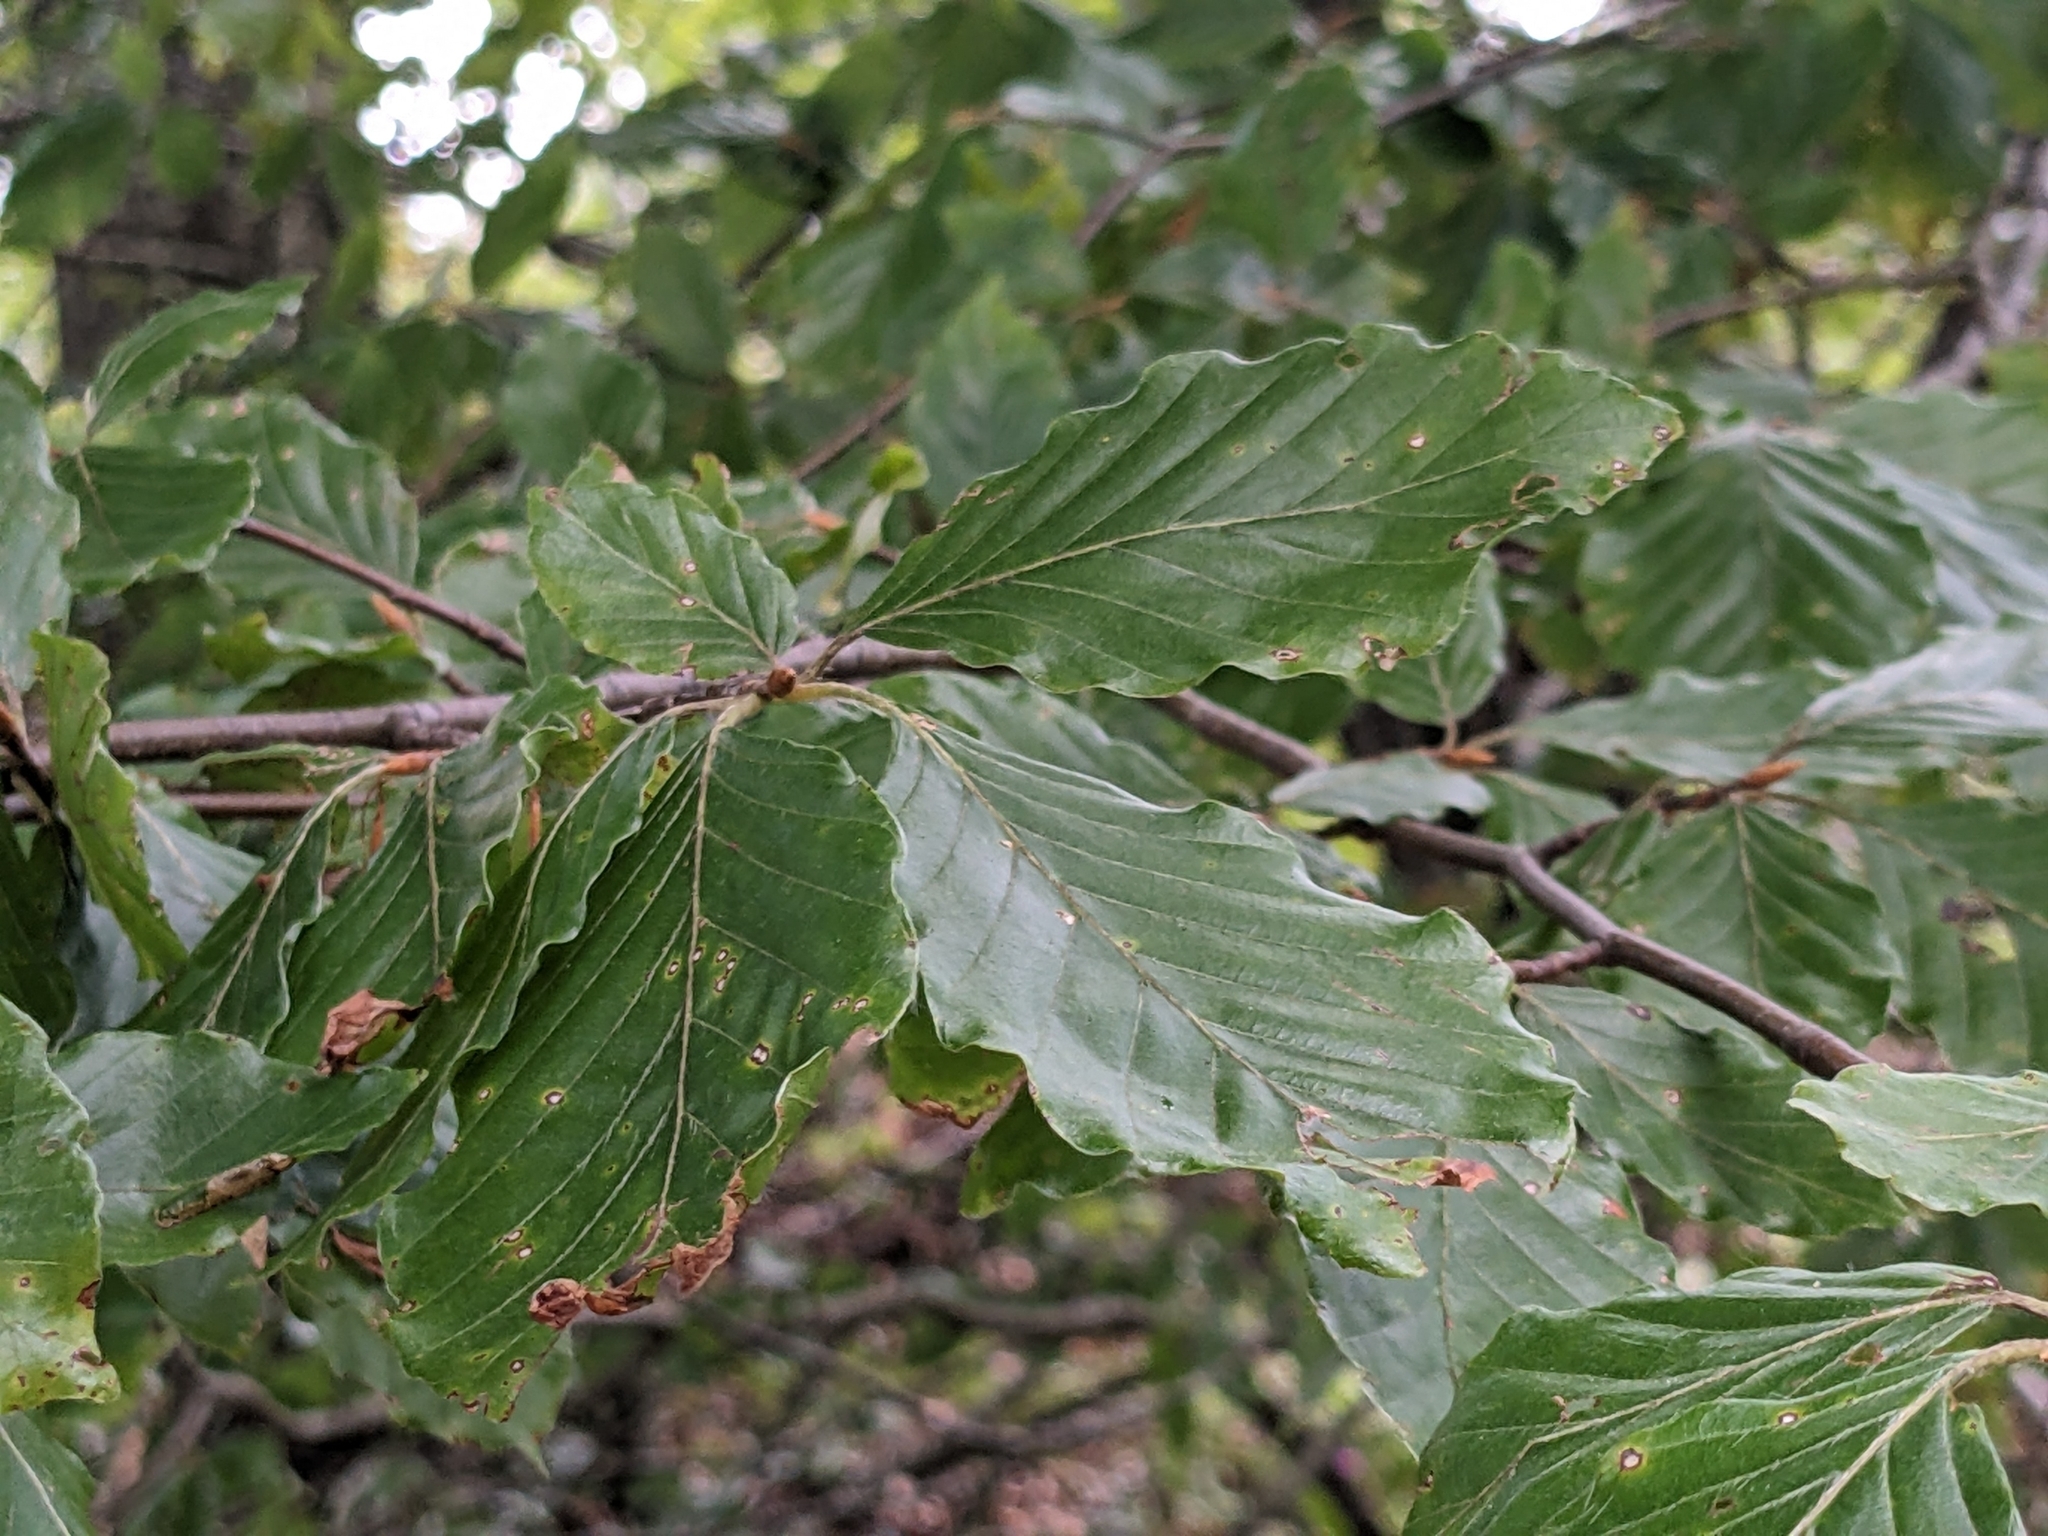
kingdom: Plantae
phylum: Tracheophyta
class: Magnoliopsida
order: Fagales
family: Fagaceae
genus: Fagus
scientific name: Fagus sylvatica
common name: Beech
